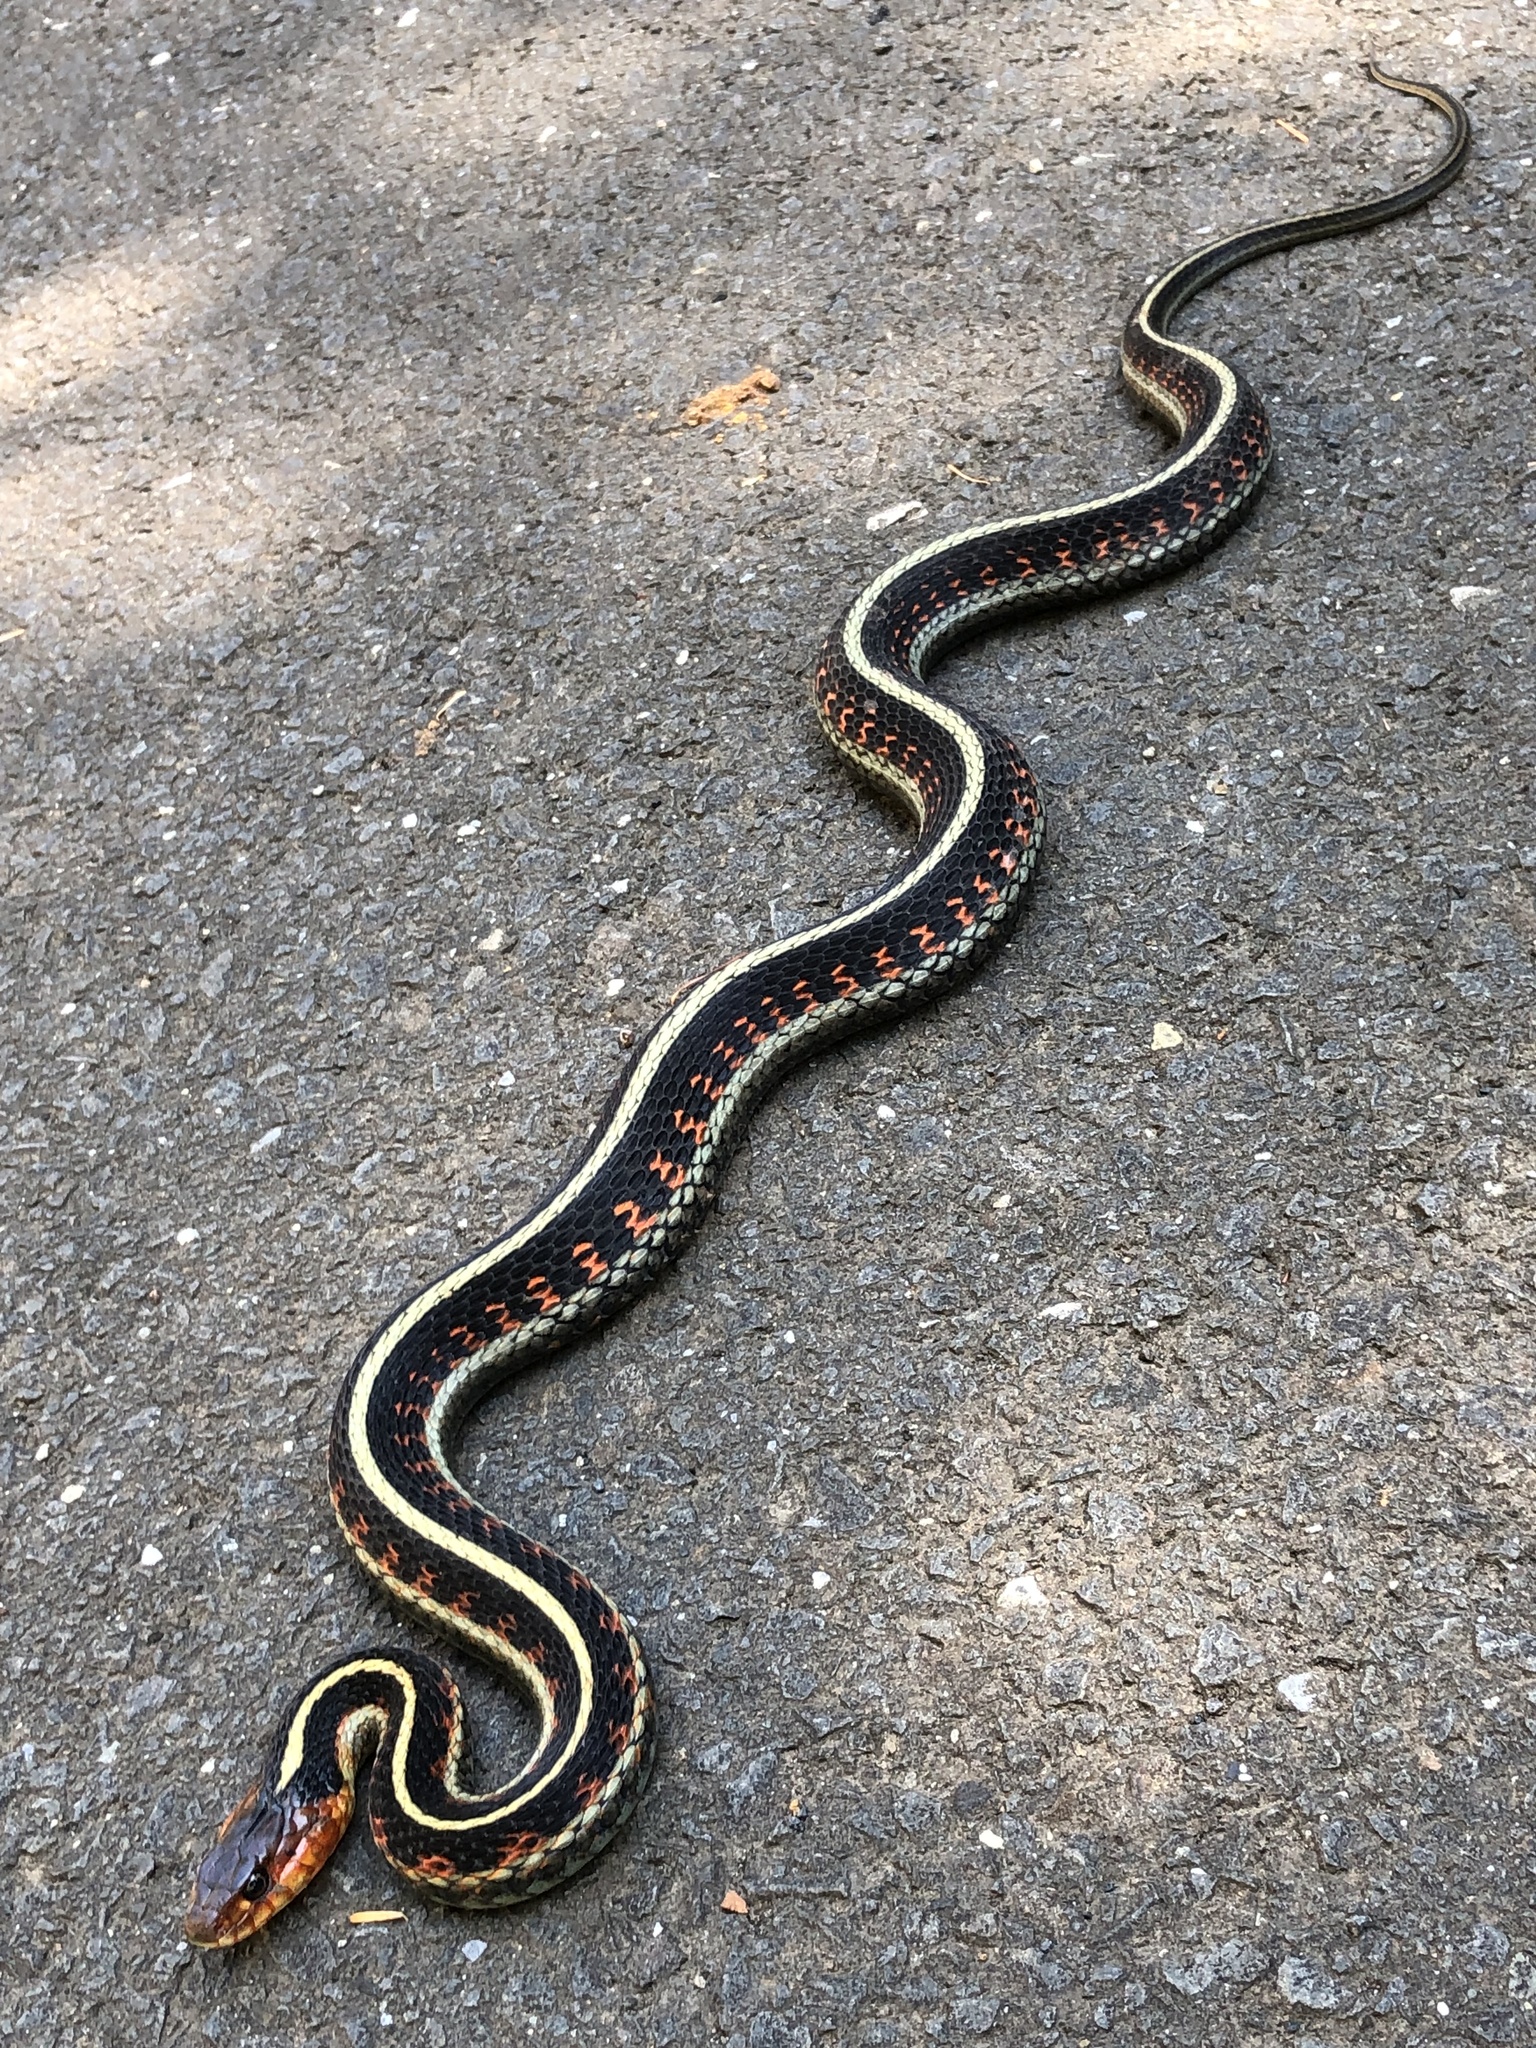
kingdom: Animalia
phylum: Chordata
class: Squamata
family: Colubridae
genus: Thamnophis
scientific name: Thamnophis sirtalis
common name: Common garter snake
